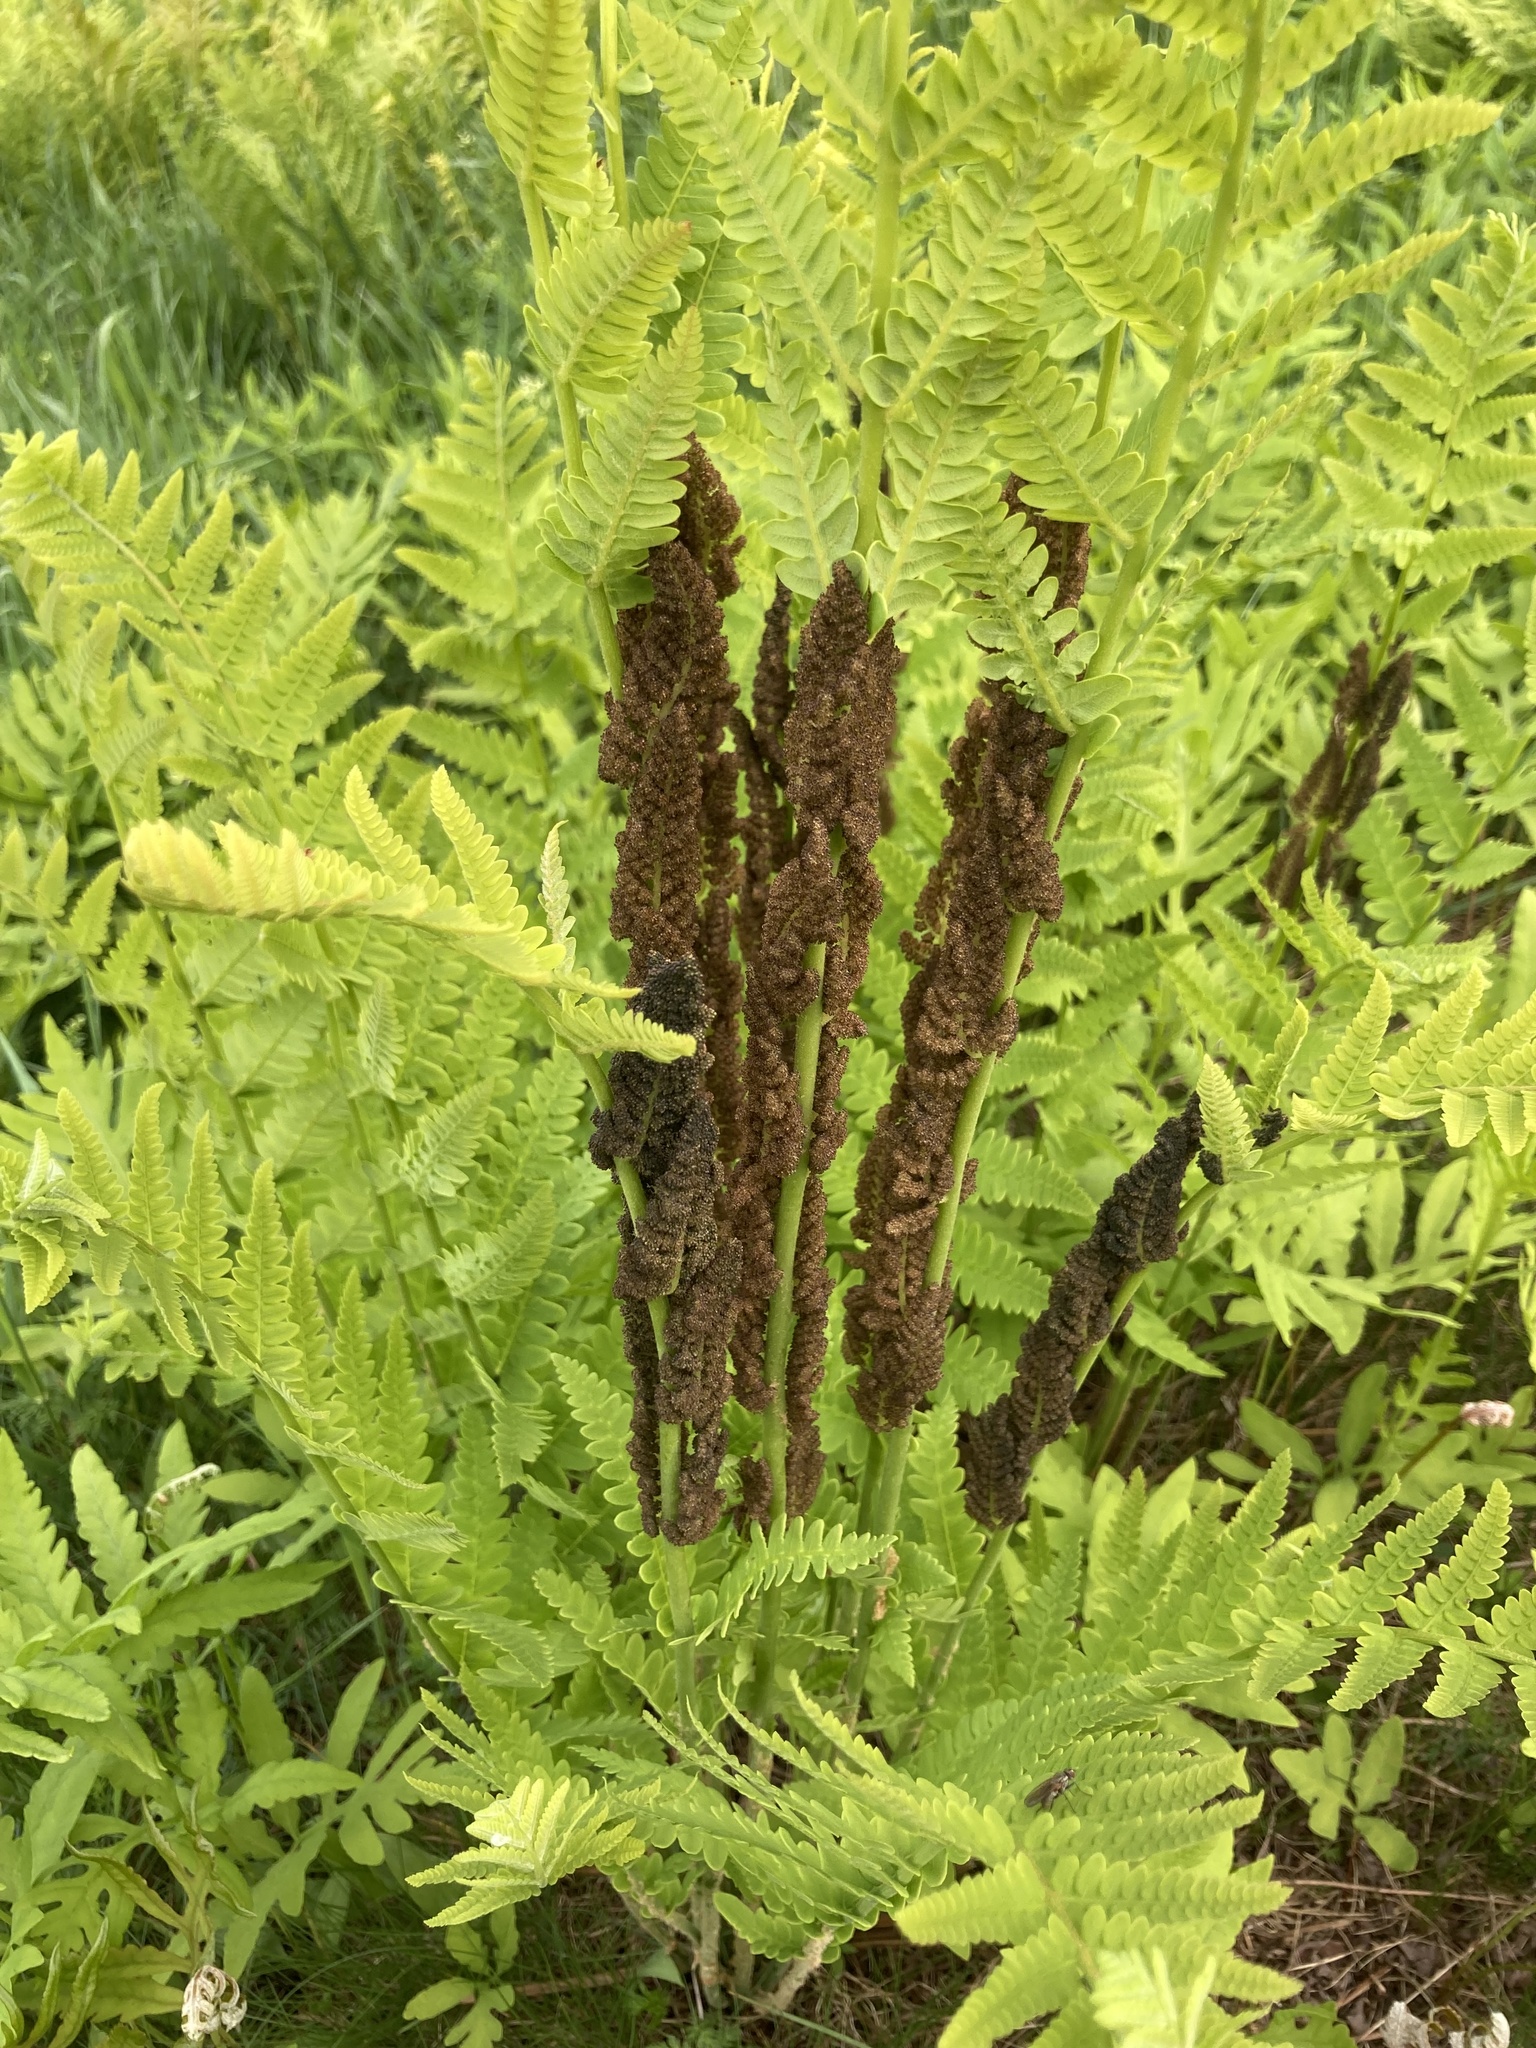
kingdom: Plantae
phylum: Tracheophyta
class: Polypodiopsida
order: Osmundales
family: Osmundaceae
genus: Claytosmunda
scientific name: Claytosmunda claytoniana
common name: Clayton's fern
